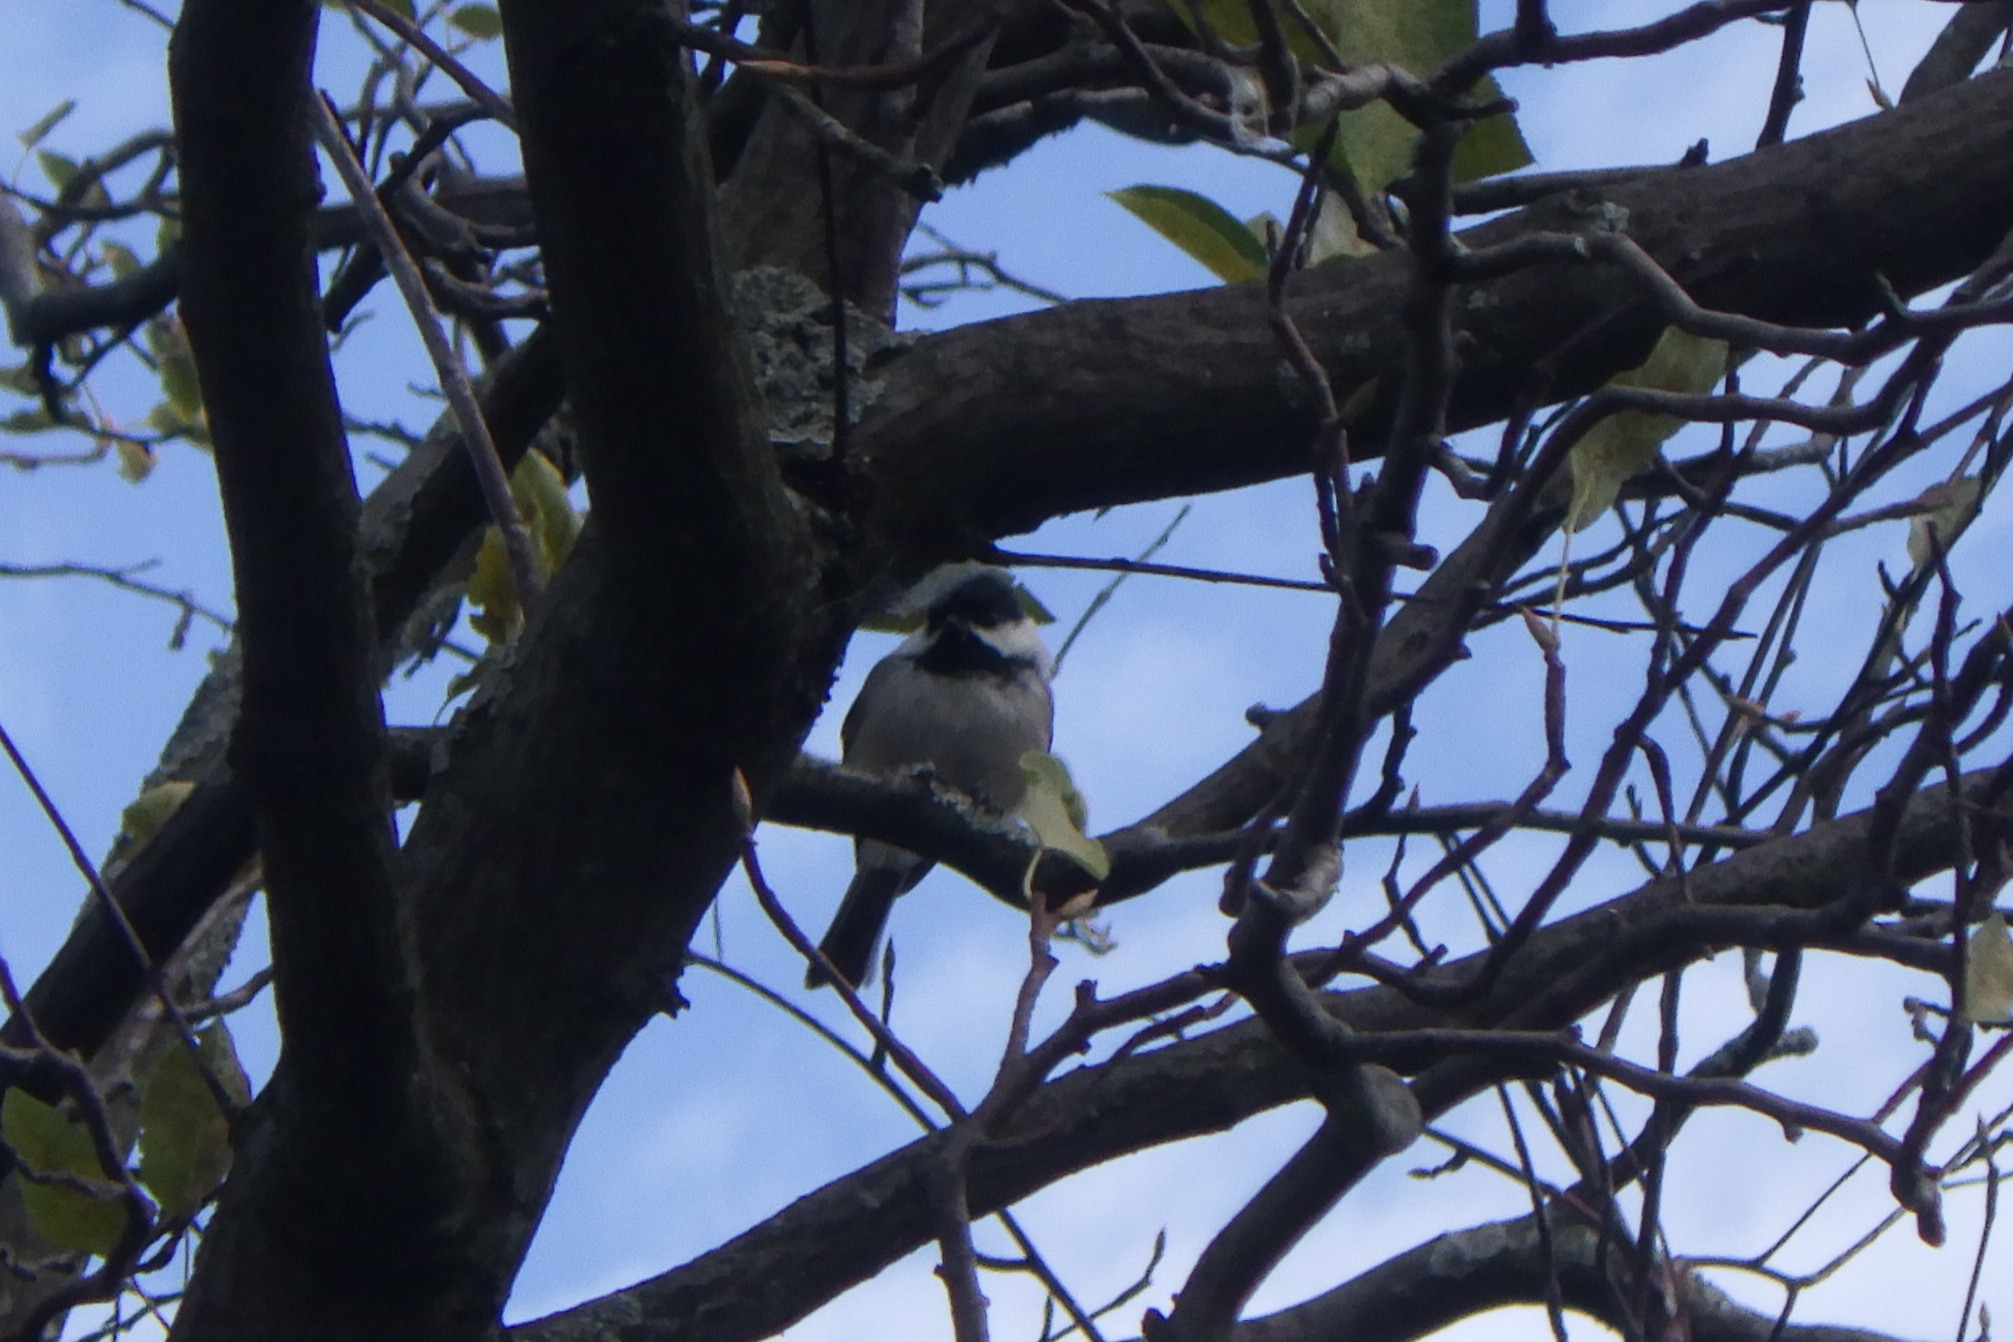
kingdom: Animalia
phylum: Chordata
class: Aves
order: Passeriformes
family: Paridae
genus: Poecile
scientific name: Poecile atricapillus
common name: Black-capped chickadee
